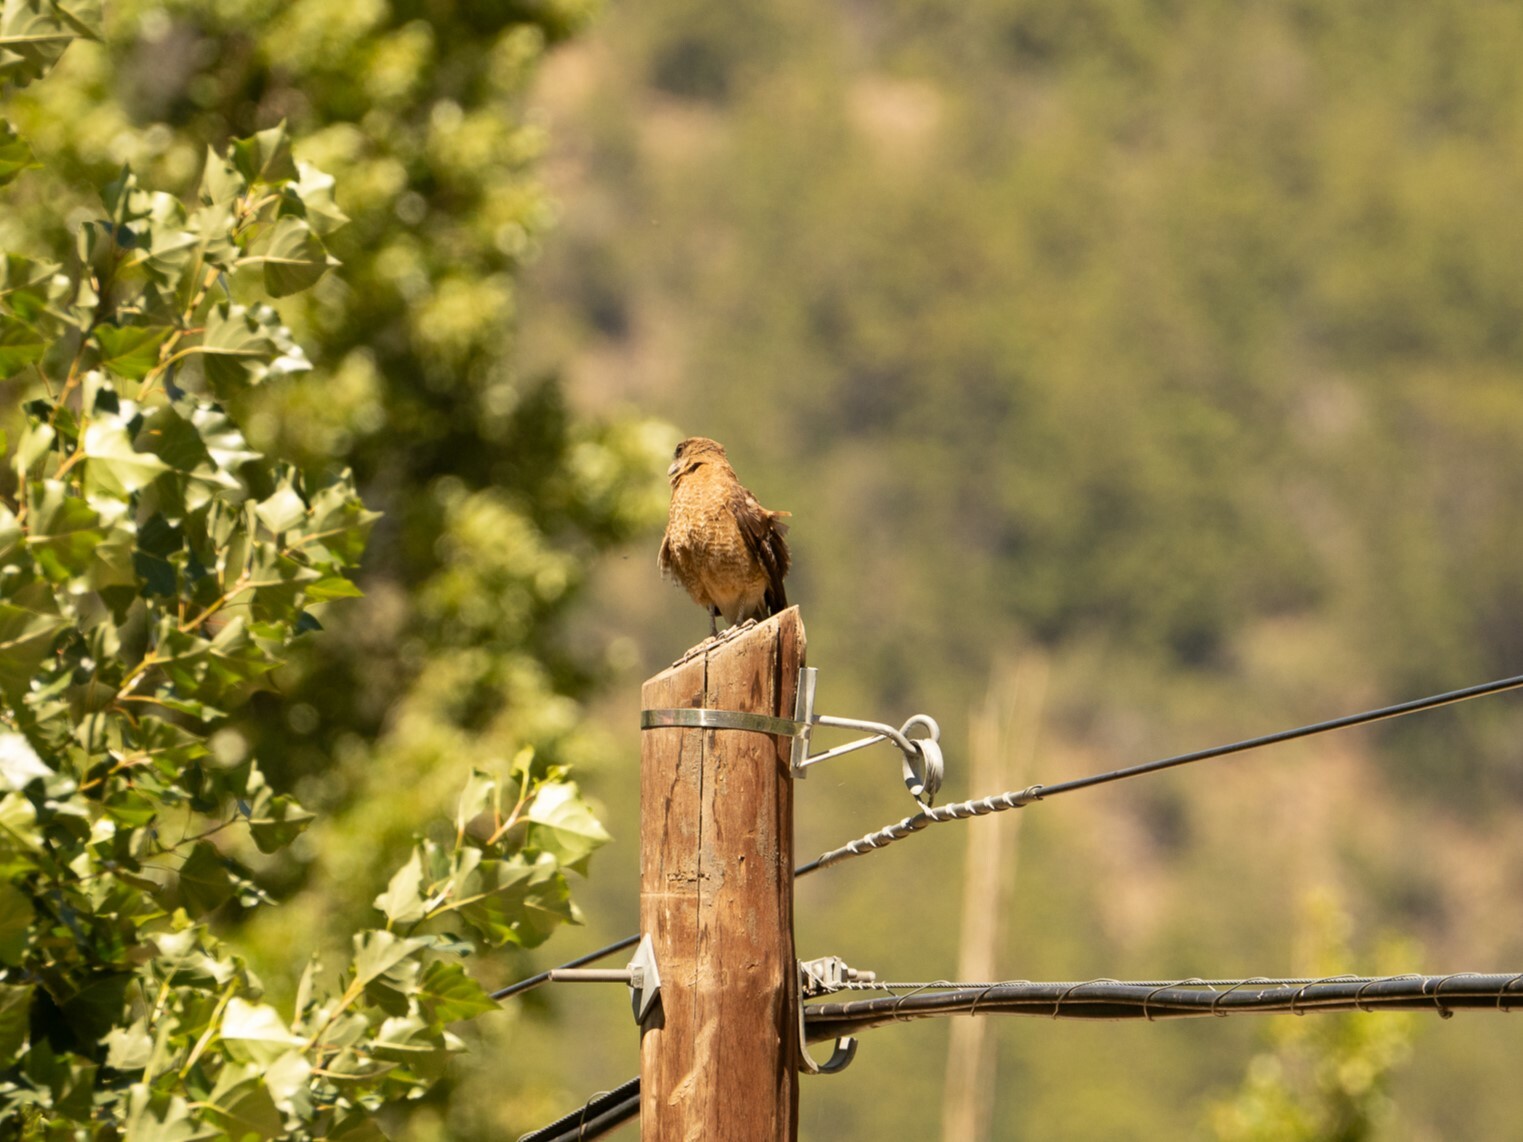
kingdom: Animalia
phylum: Chordata
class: Aves
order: Falconiformes
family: Falconidae
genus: Daptrius
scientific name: Daptrius
